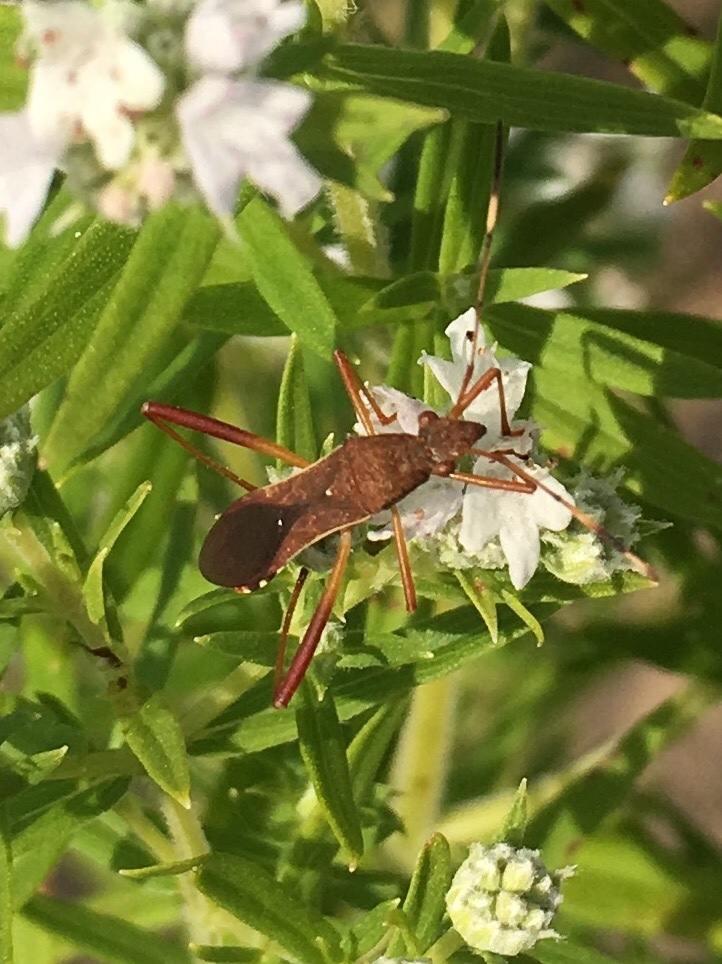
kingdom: Animalia
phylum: Arthropoda
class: Insecta
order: Hemiptera
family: Alydidae
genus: Megalotomus
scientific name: Megalotomus quinquespinosus
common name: Lupine bug
